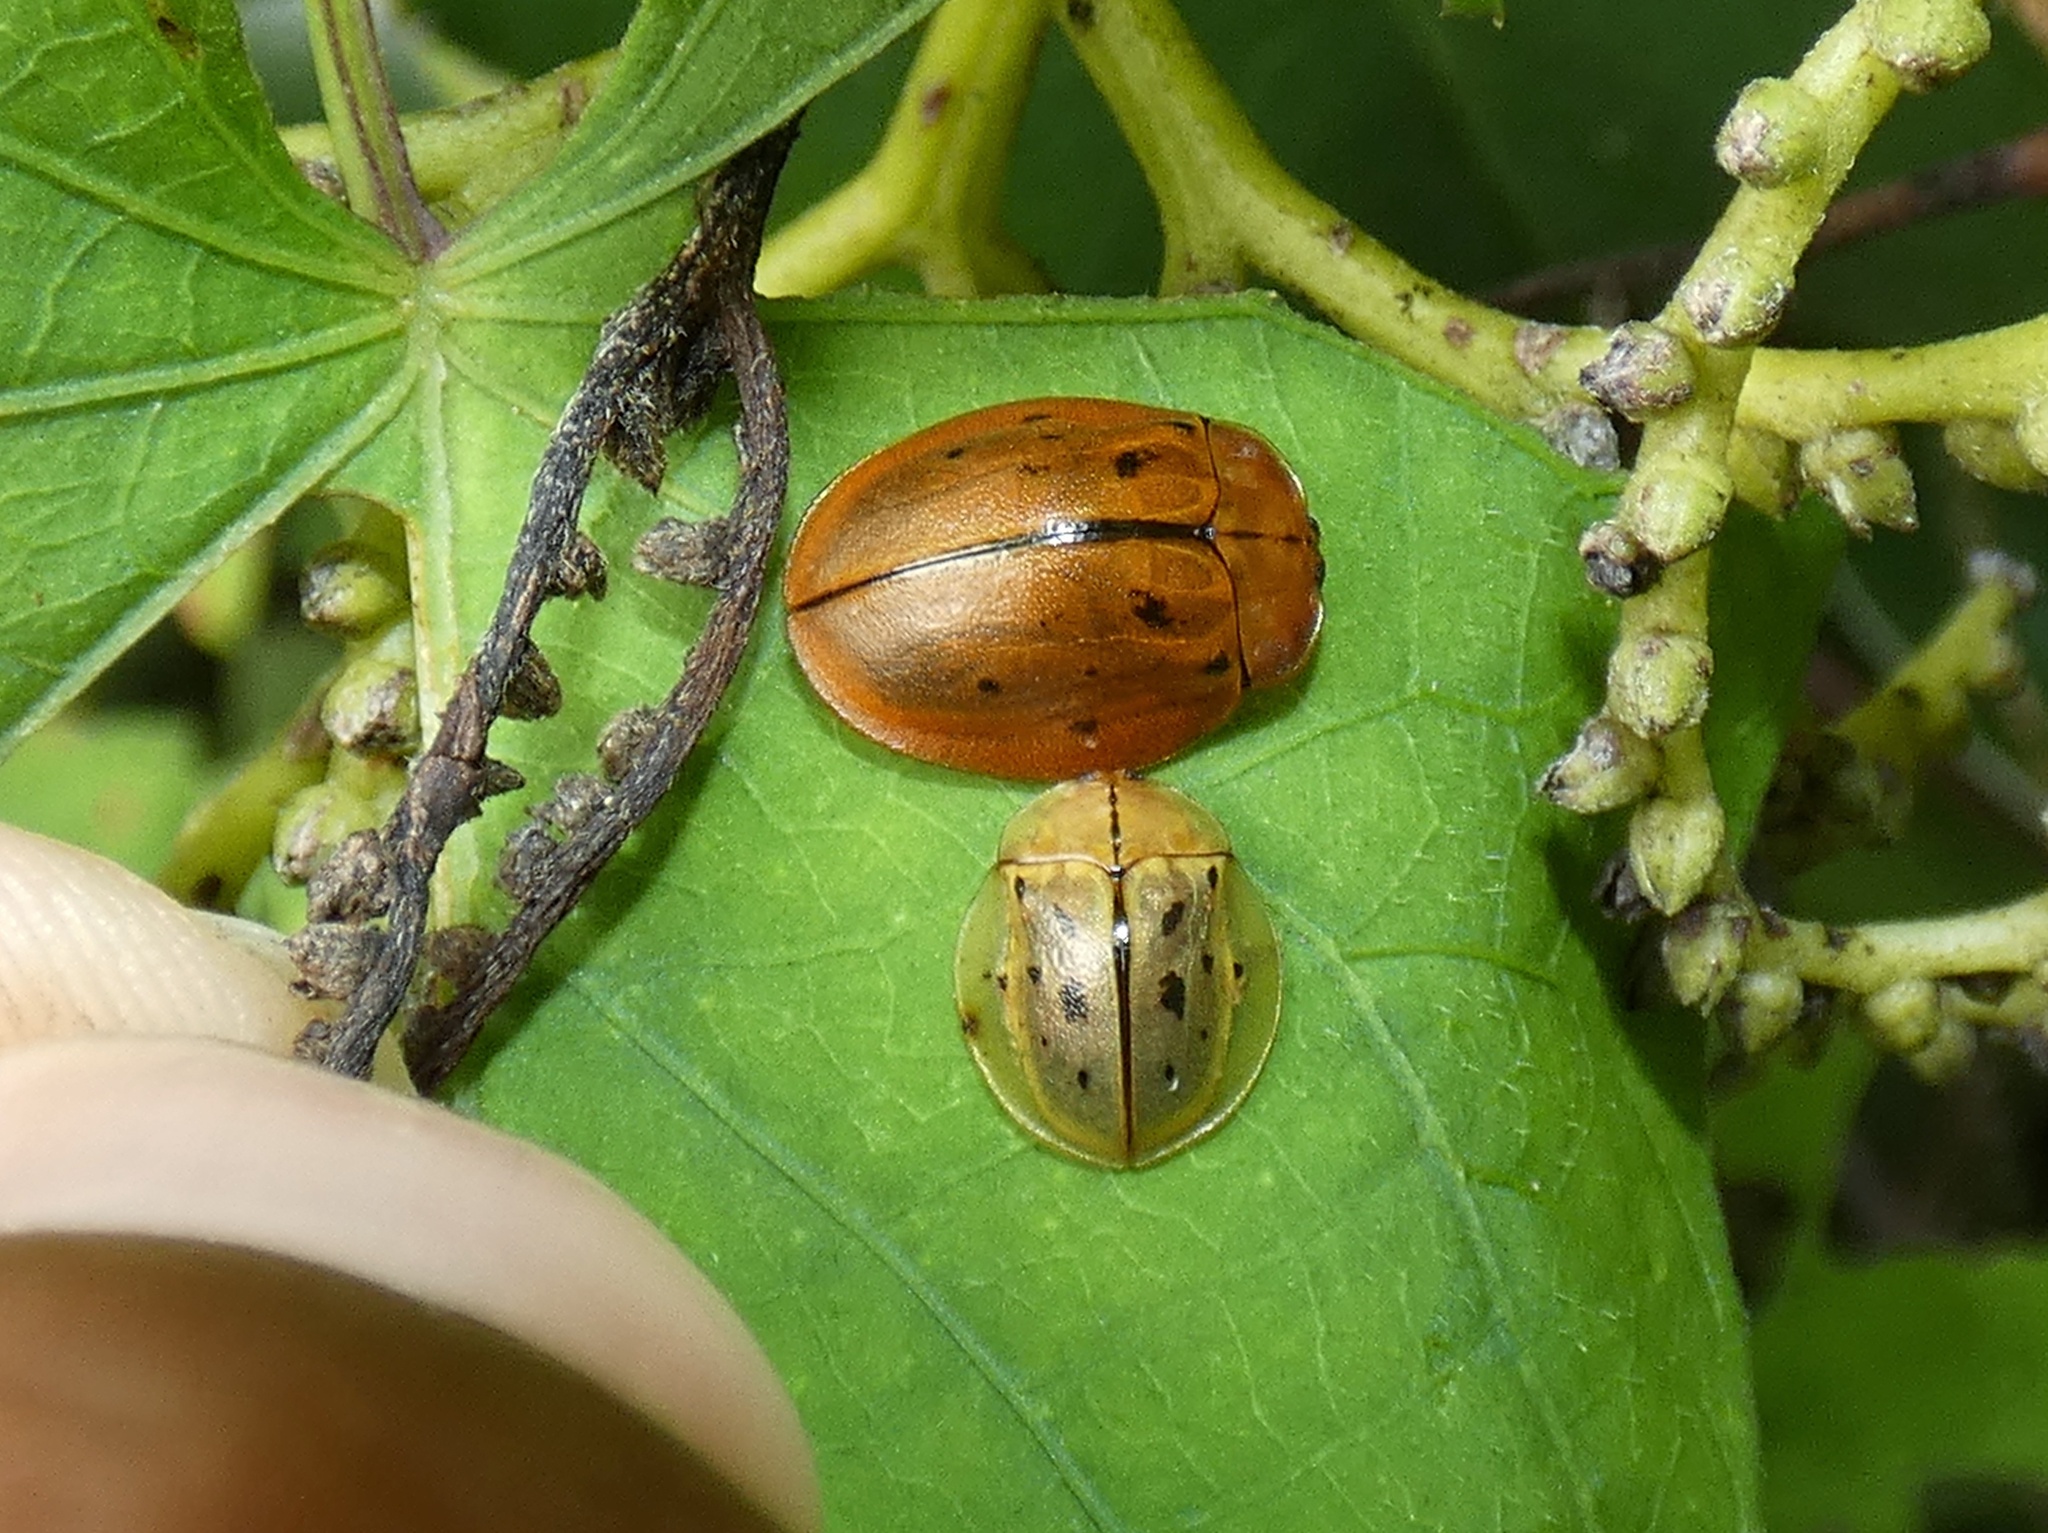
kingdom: Animalia
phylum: Arthropoda
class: Insecta
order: Coleoptera
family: Chrysomelidae
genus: Stolas
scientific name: Stolas pertusa
